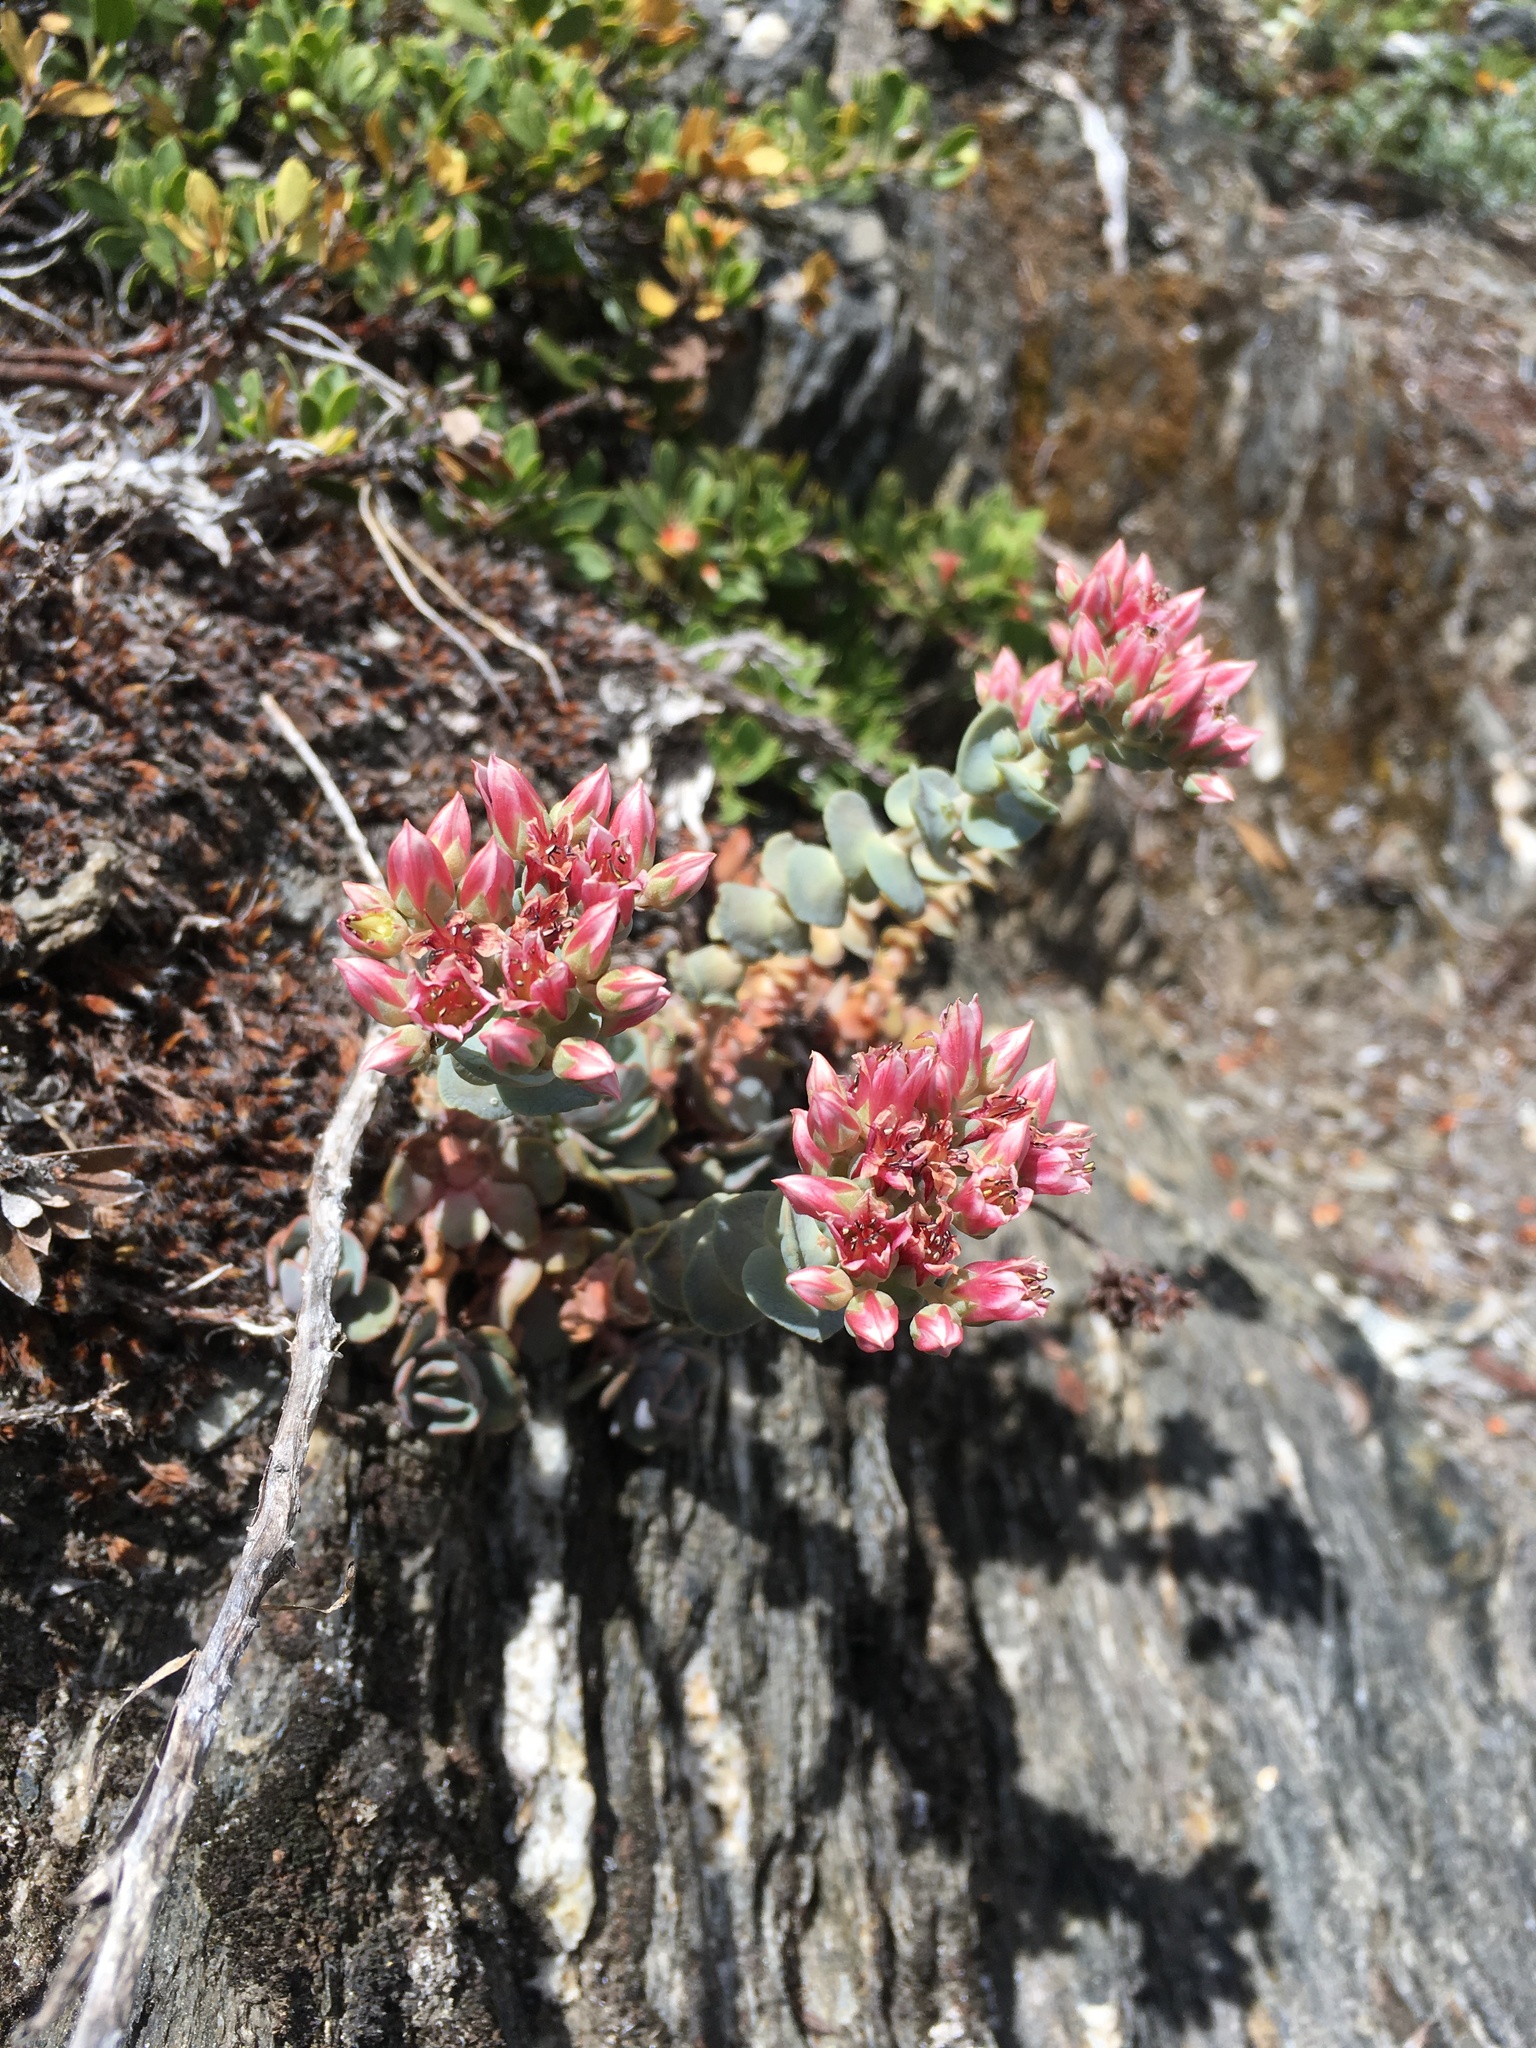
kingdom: Plantae
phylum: Tracheophyta
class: Magnoliopsida
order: Saxifragales
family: Crassulaceae
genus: Sedum
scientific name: Sedum laxum
